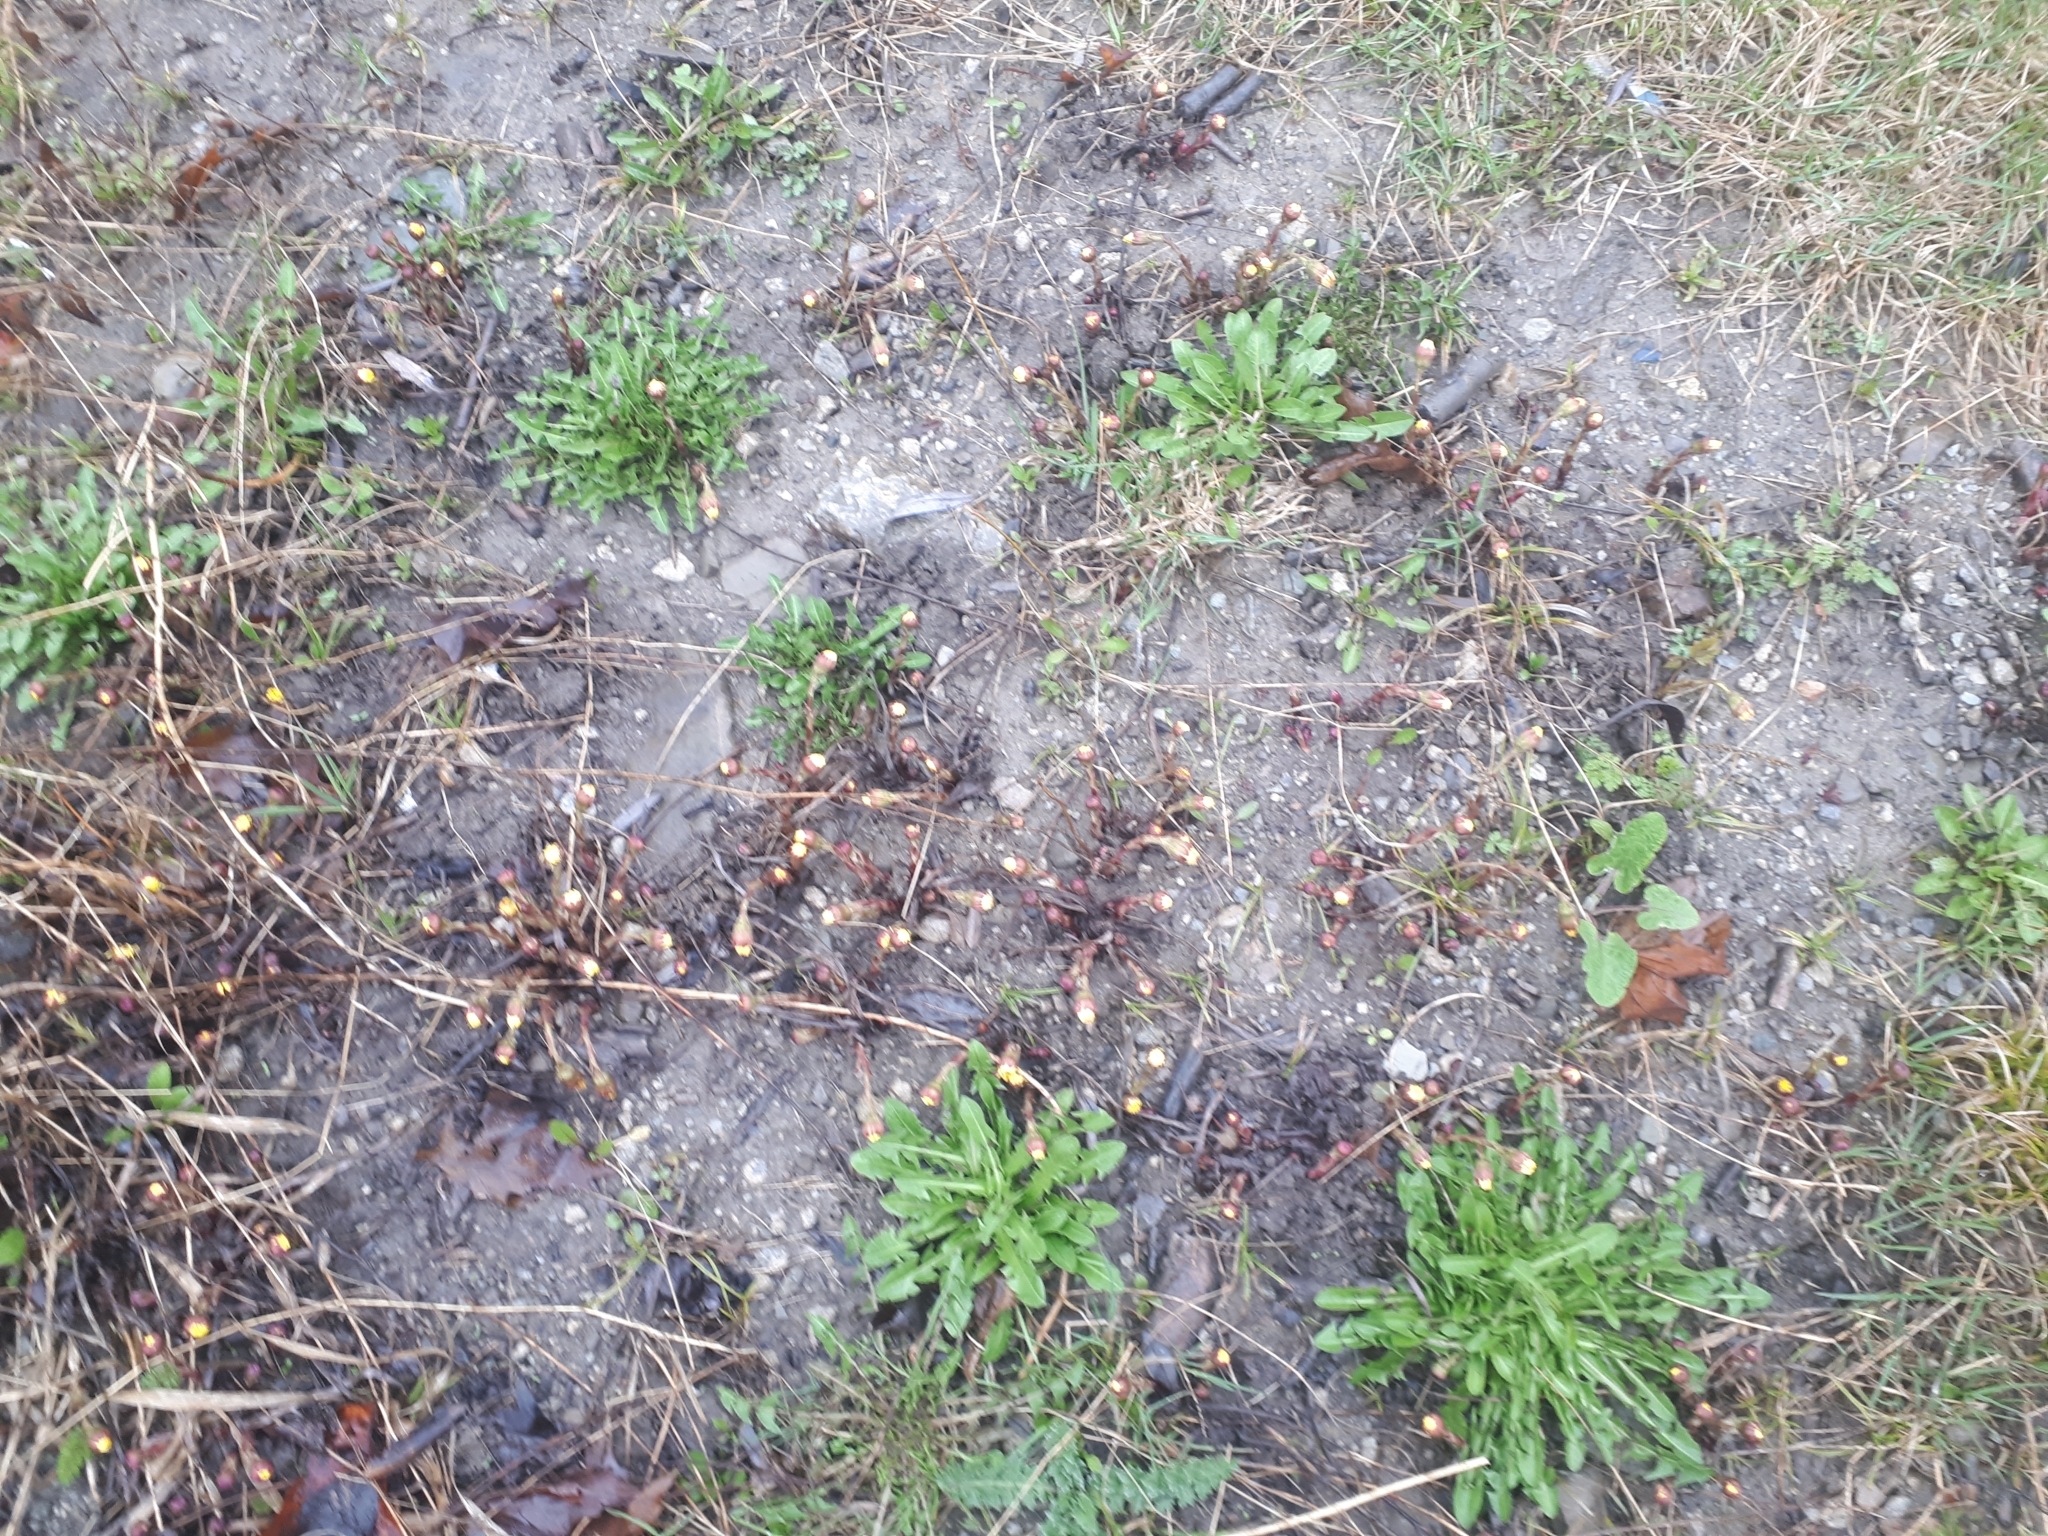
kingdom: Plantae
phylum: Tracheophyta
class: Magnoliopsida
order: Asterales
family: Asteraceae
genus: Tussilago
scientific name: Tussilago farfara
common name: Coltsfoot
